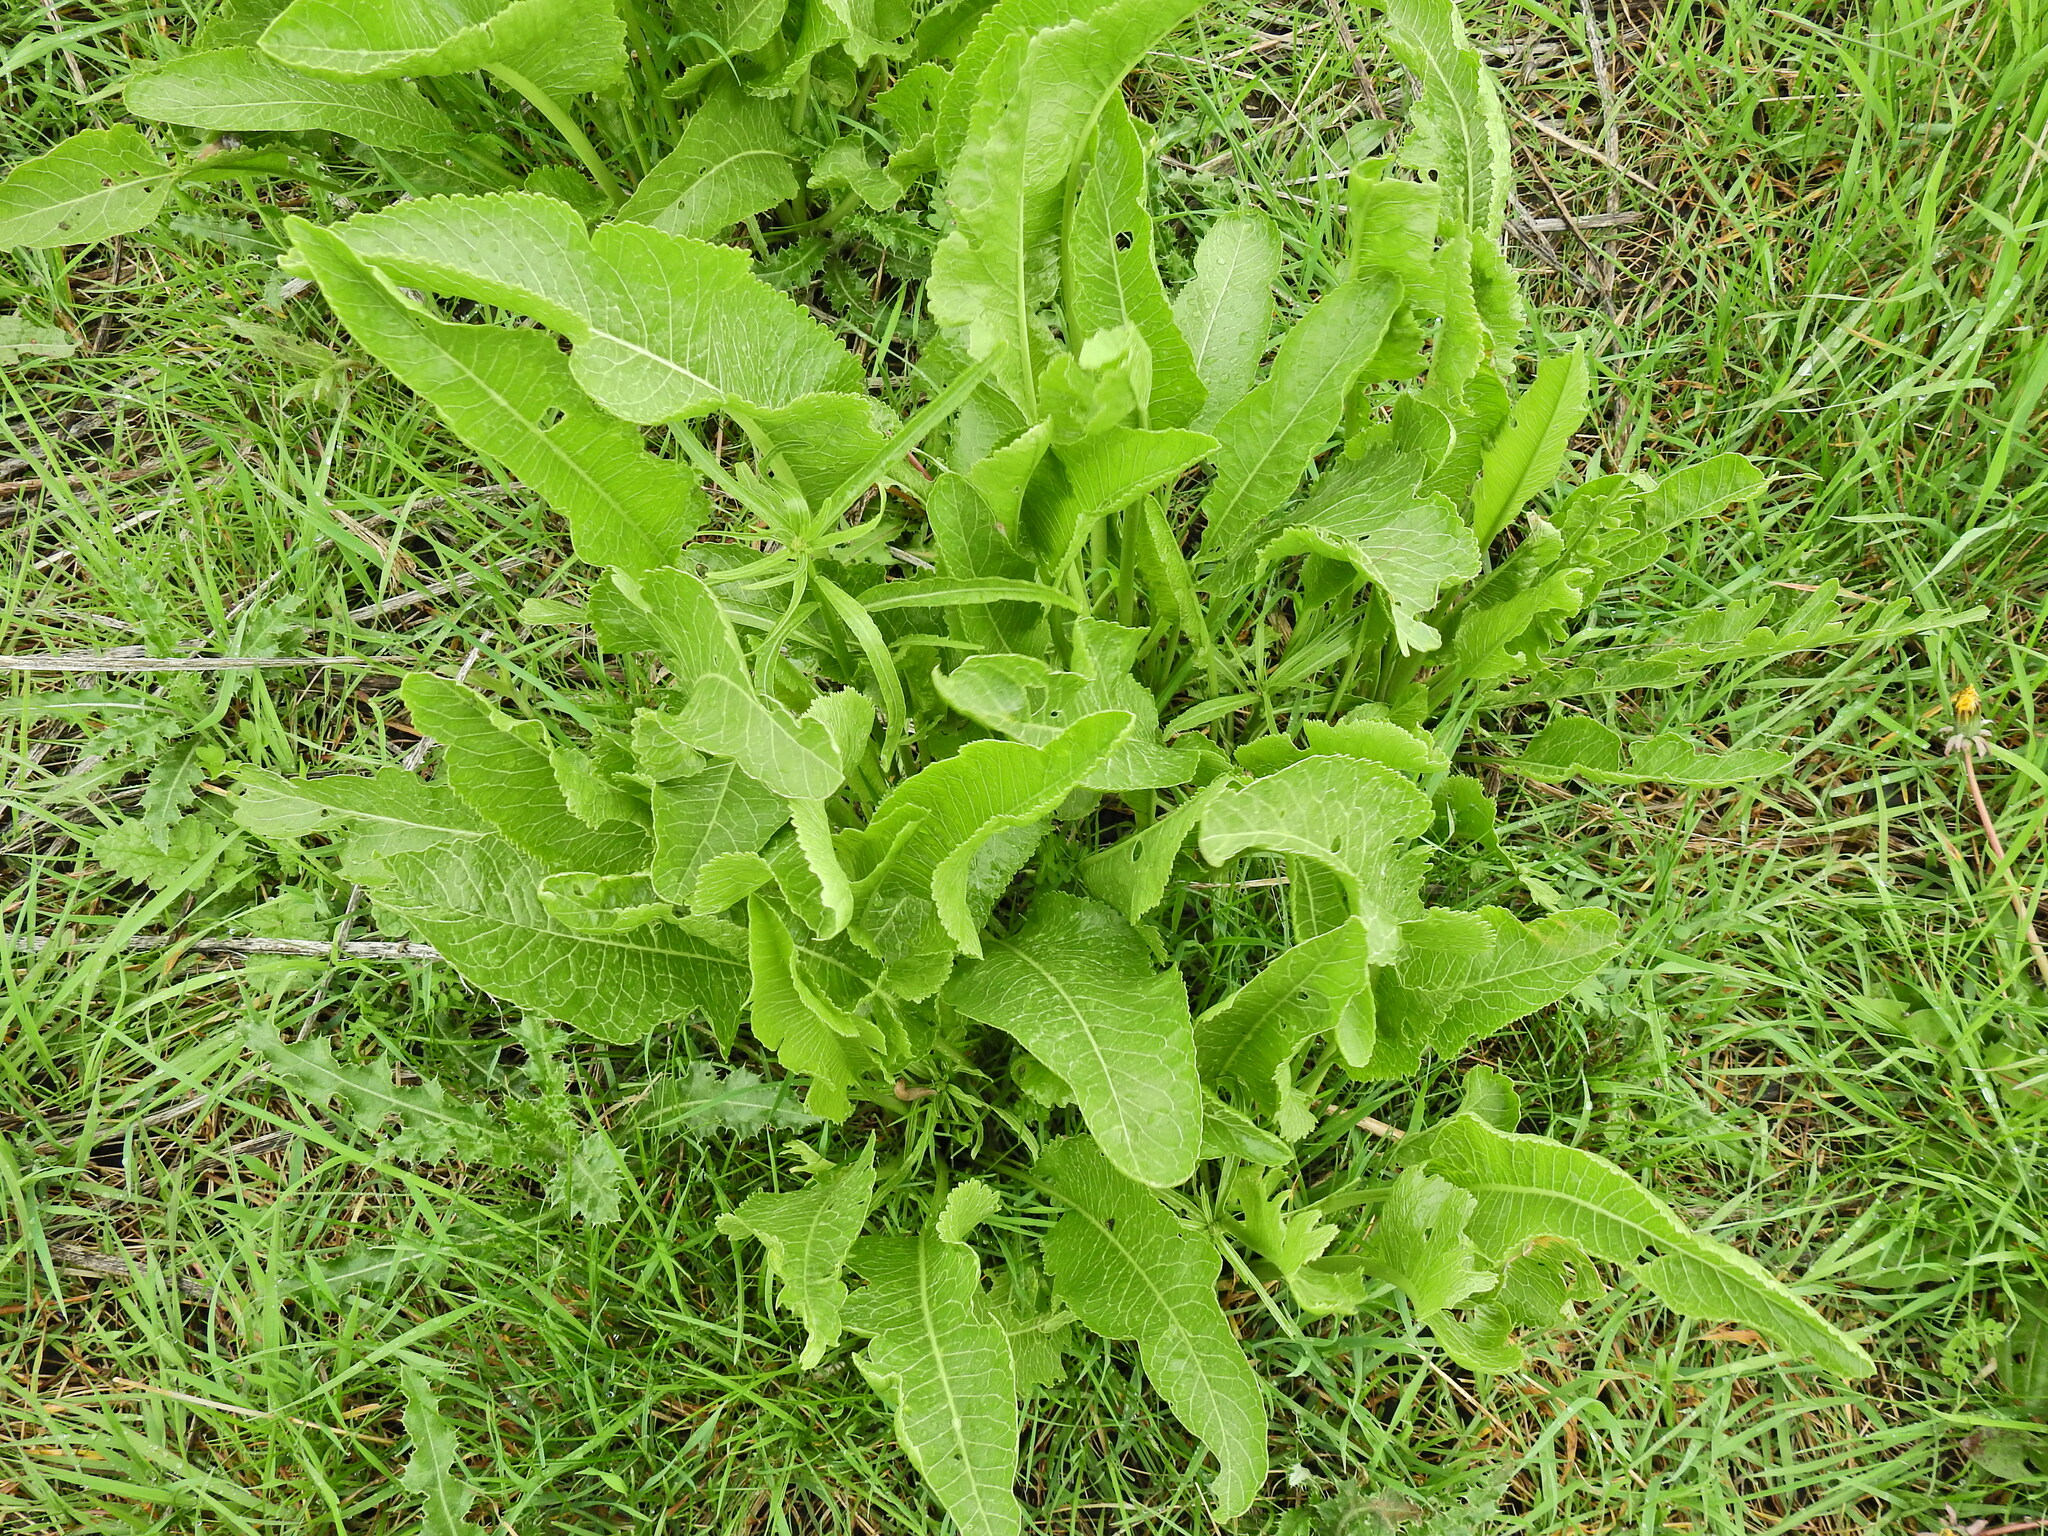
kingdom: Plantae
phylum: Tracheophyta
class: Magnoliopsida
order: Brassicales
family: Brassicaceae
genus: Armoracia
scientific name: Armoracia rusticana
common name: Horseradish
